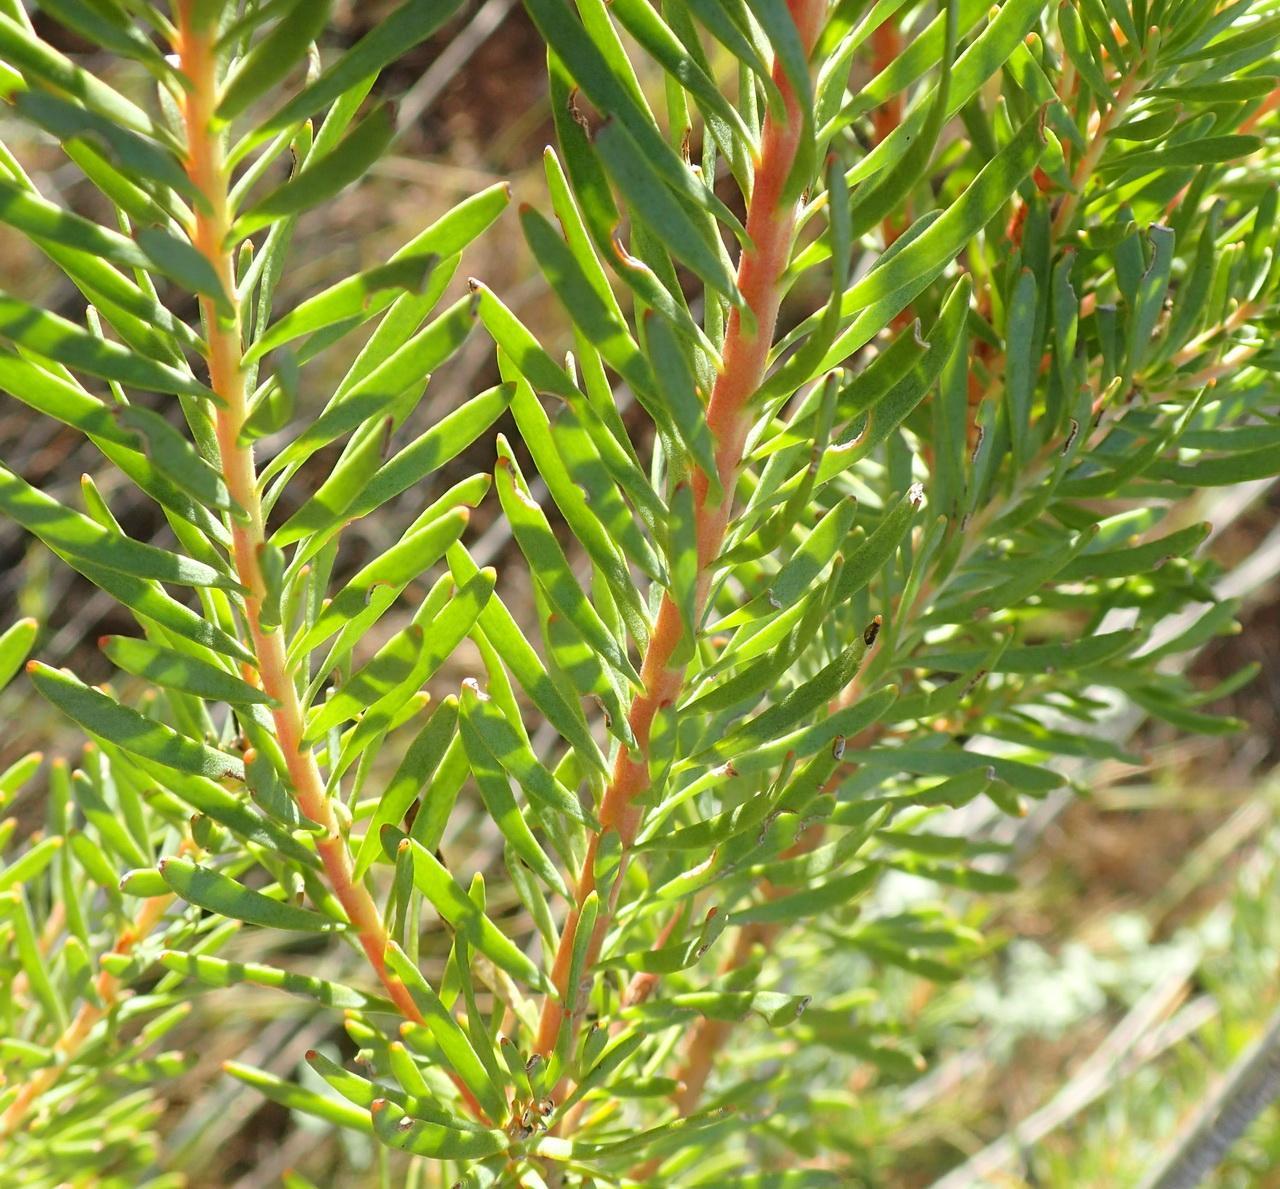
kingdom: Plantae
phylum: Tracheophyta
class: Magnoliopsida
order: Proteales
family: Proteaceae
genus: Leucadendron
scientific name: Leucadendron galpinii
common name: Hairless conebush
